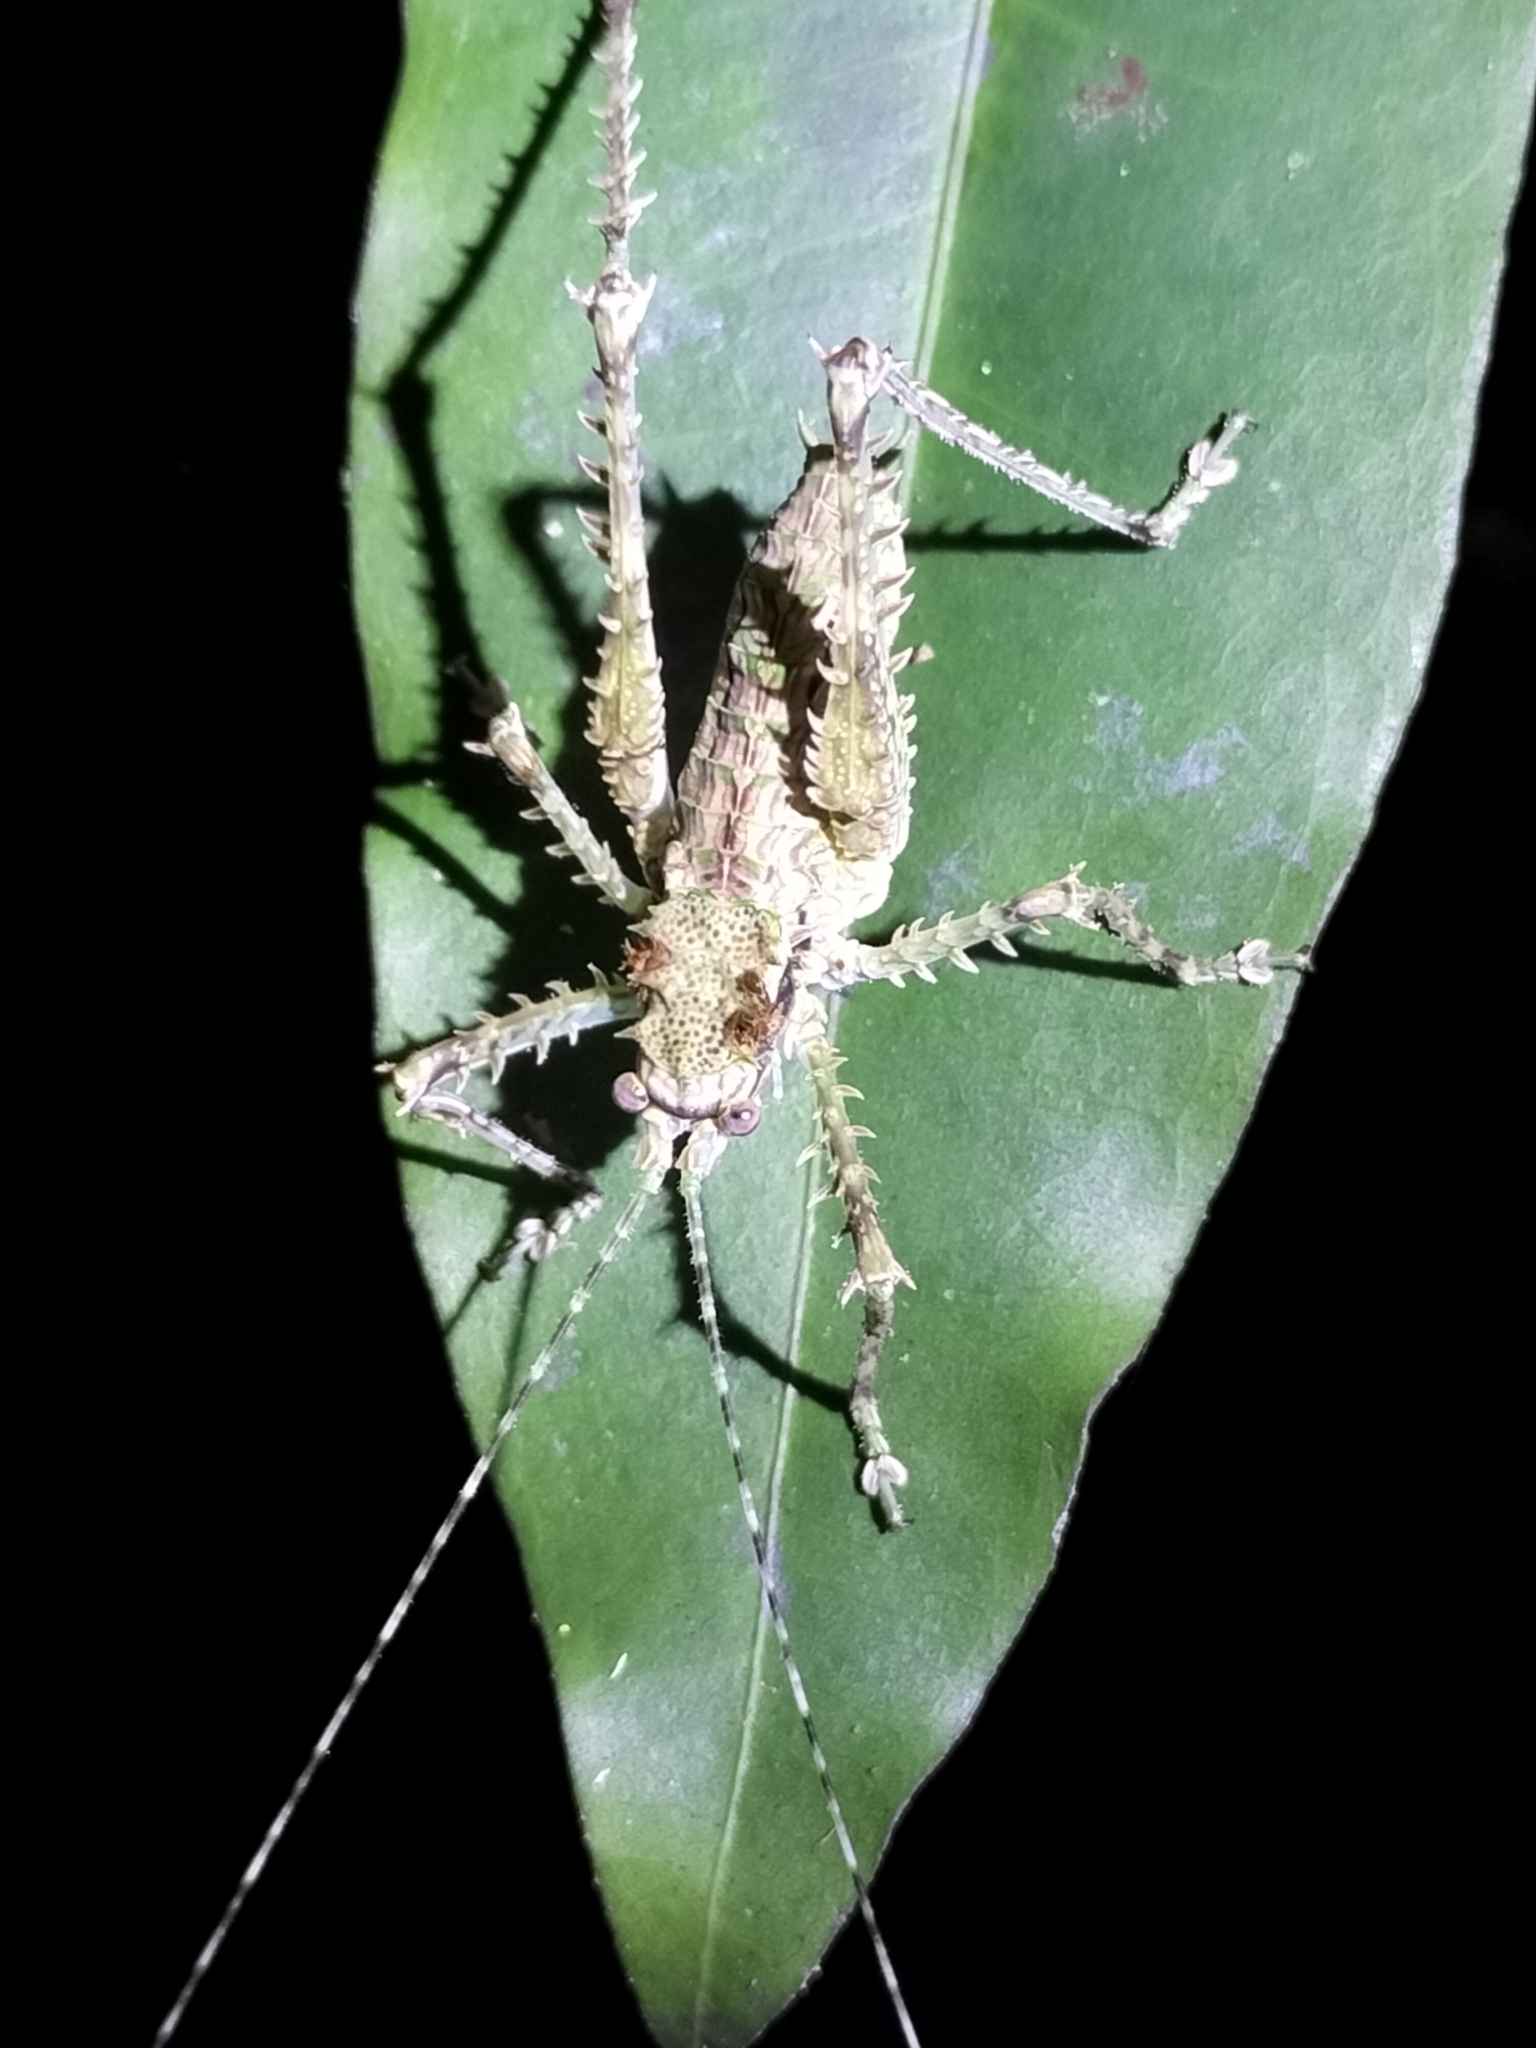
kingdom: Animalia
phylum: Arthropoda
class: Insecta
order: Orthoptera
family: Tettigoniidae
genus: Phricta
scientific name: Phricta spinosa
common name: Giant spiny forest katydid
